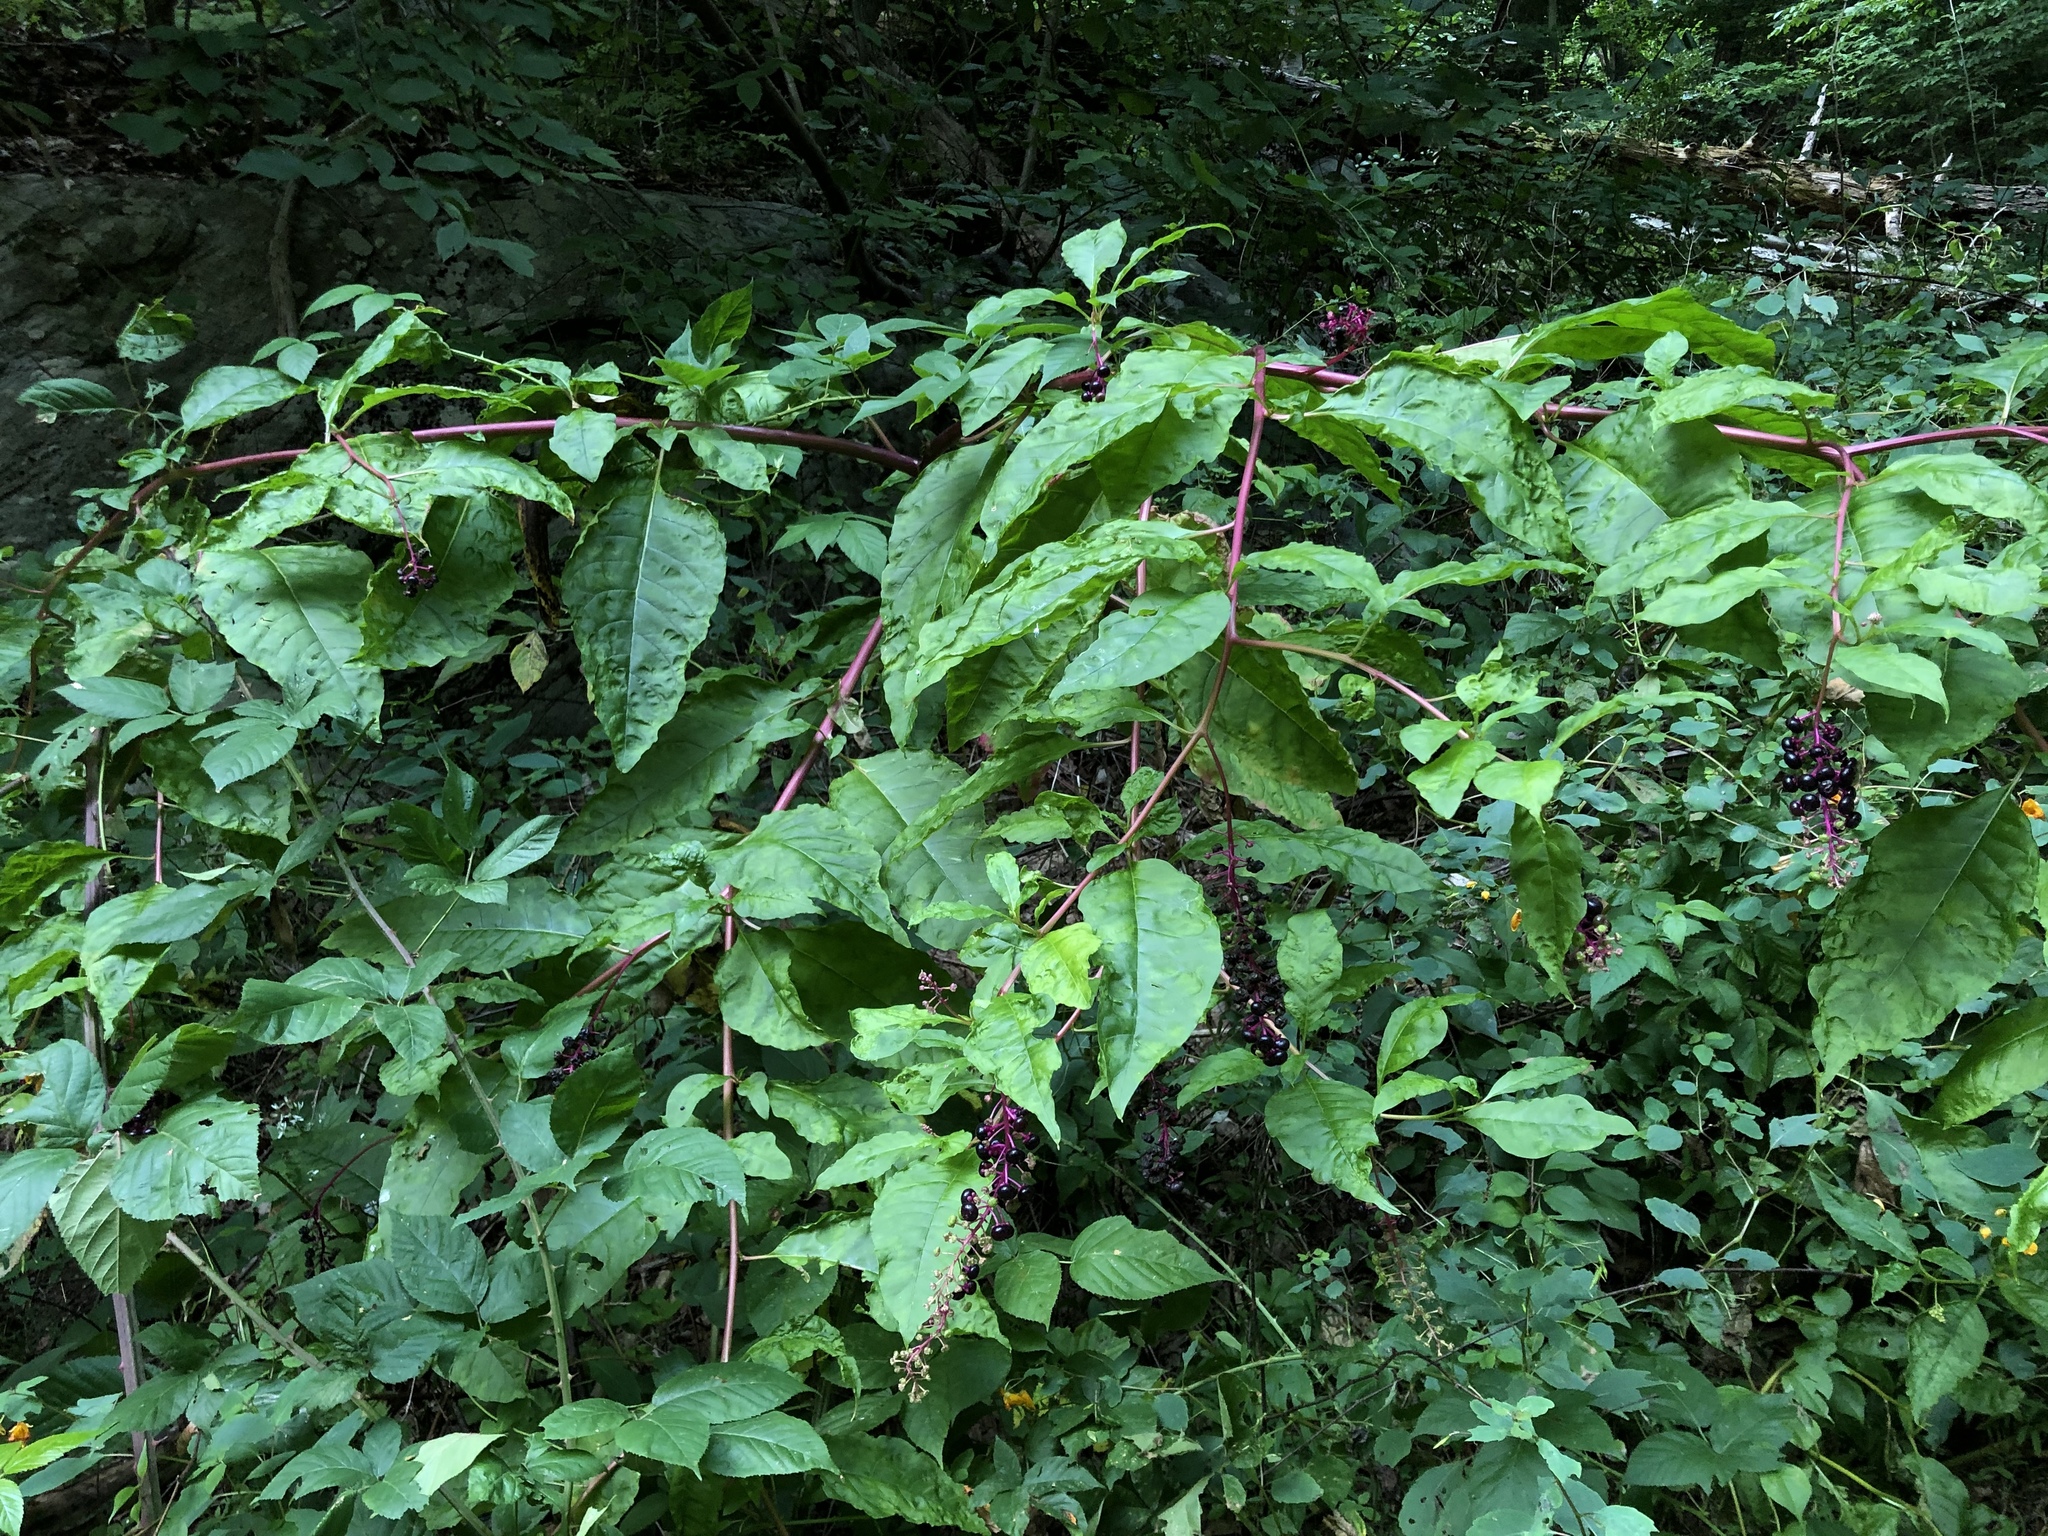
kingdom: Plantae
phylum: Tracheophyta
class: Magnoliopsida
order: Caryophyllales
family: Phytolaccaceae
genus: Phytolacca
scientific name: Phytolacca americana
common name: American pokeweed
